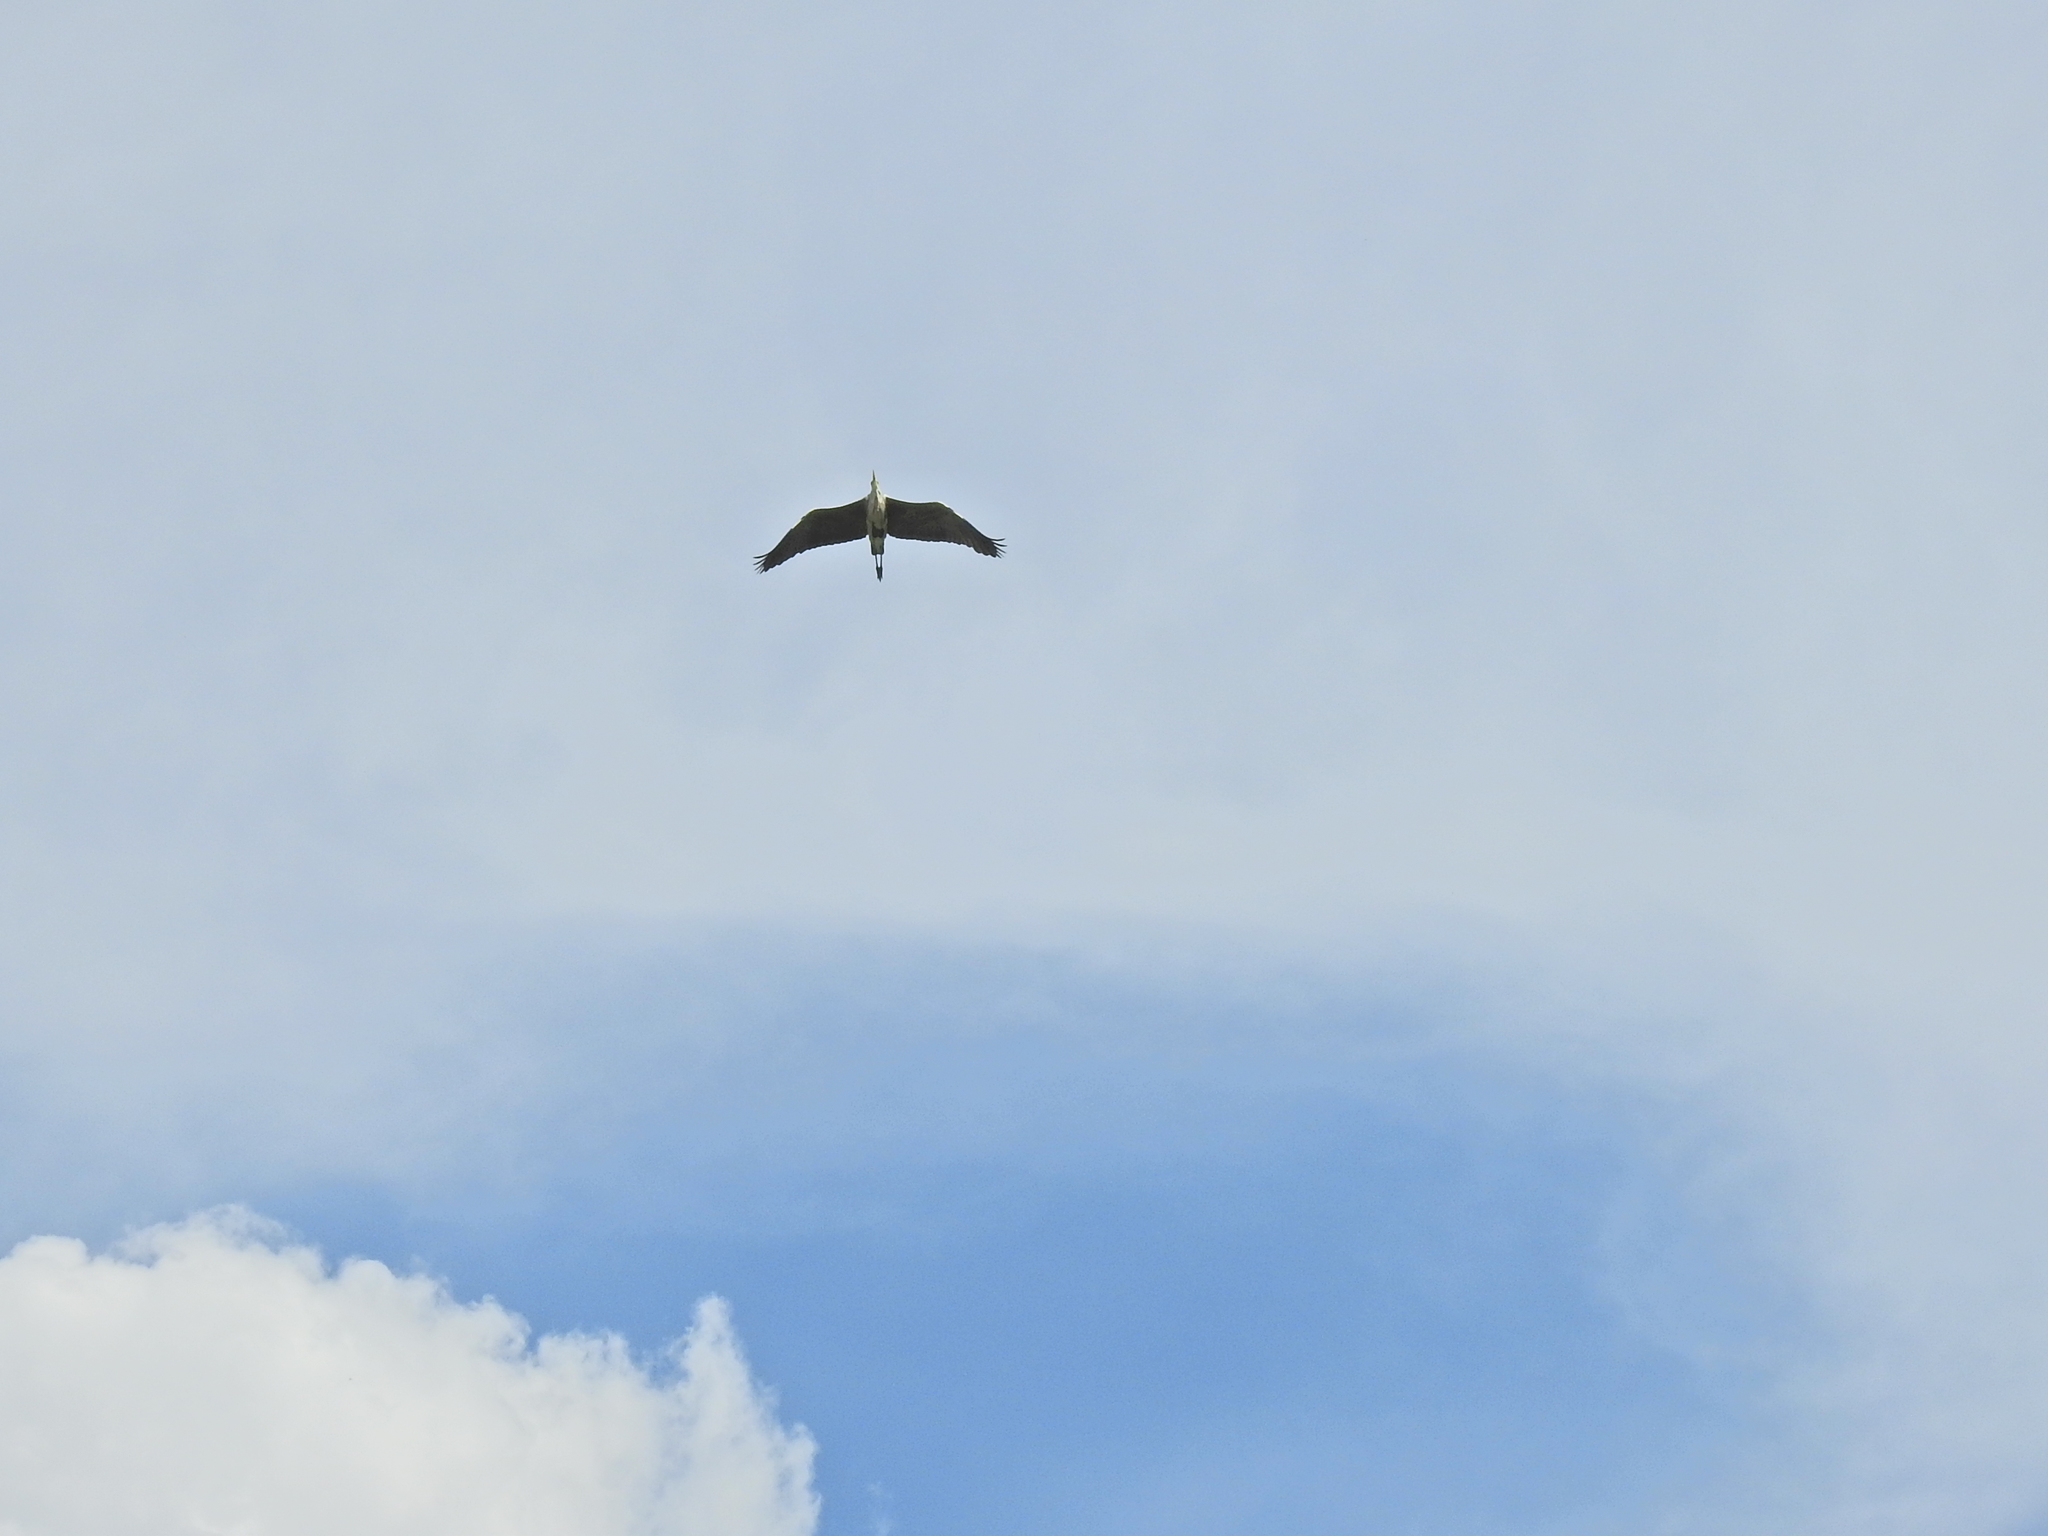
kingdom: Animalia
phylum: Chordata
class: Aves
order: Pelecaniformes
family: Ardeidae
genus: Ardea
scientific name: Ardea cinerea
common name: Grey heron
